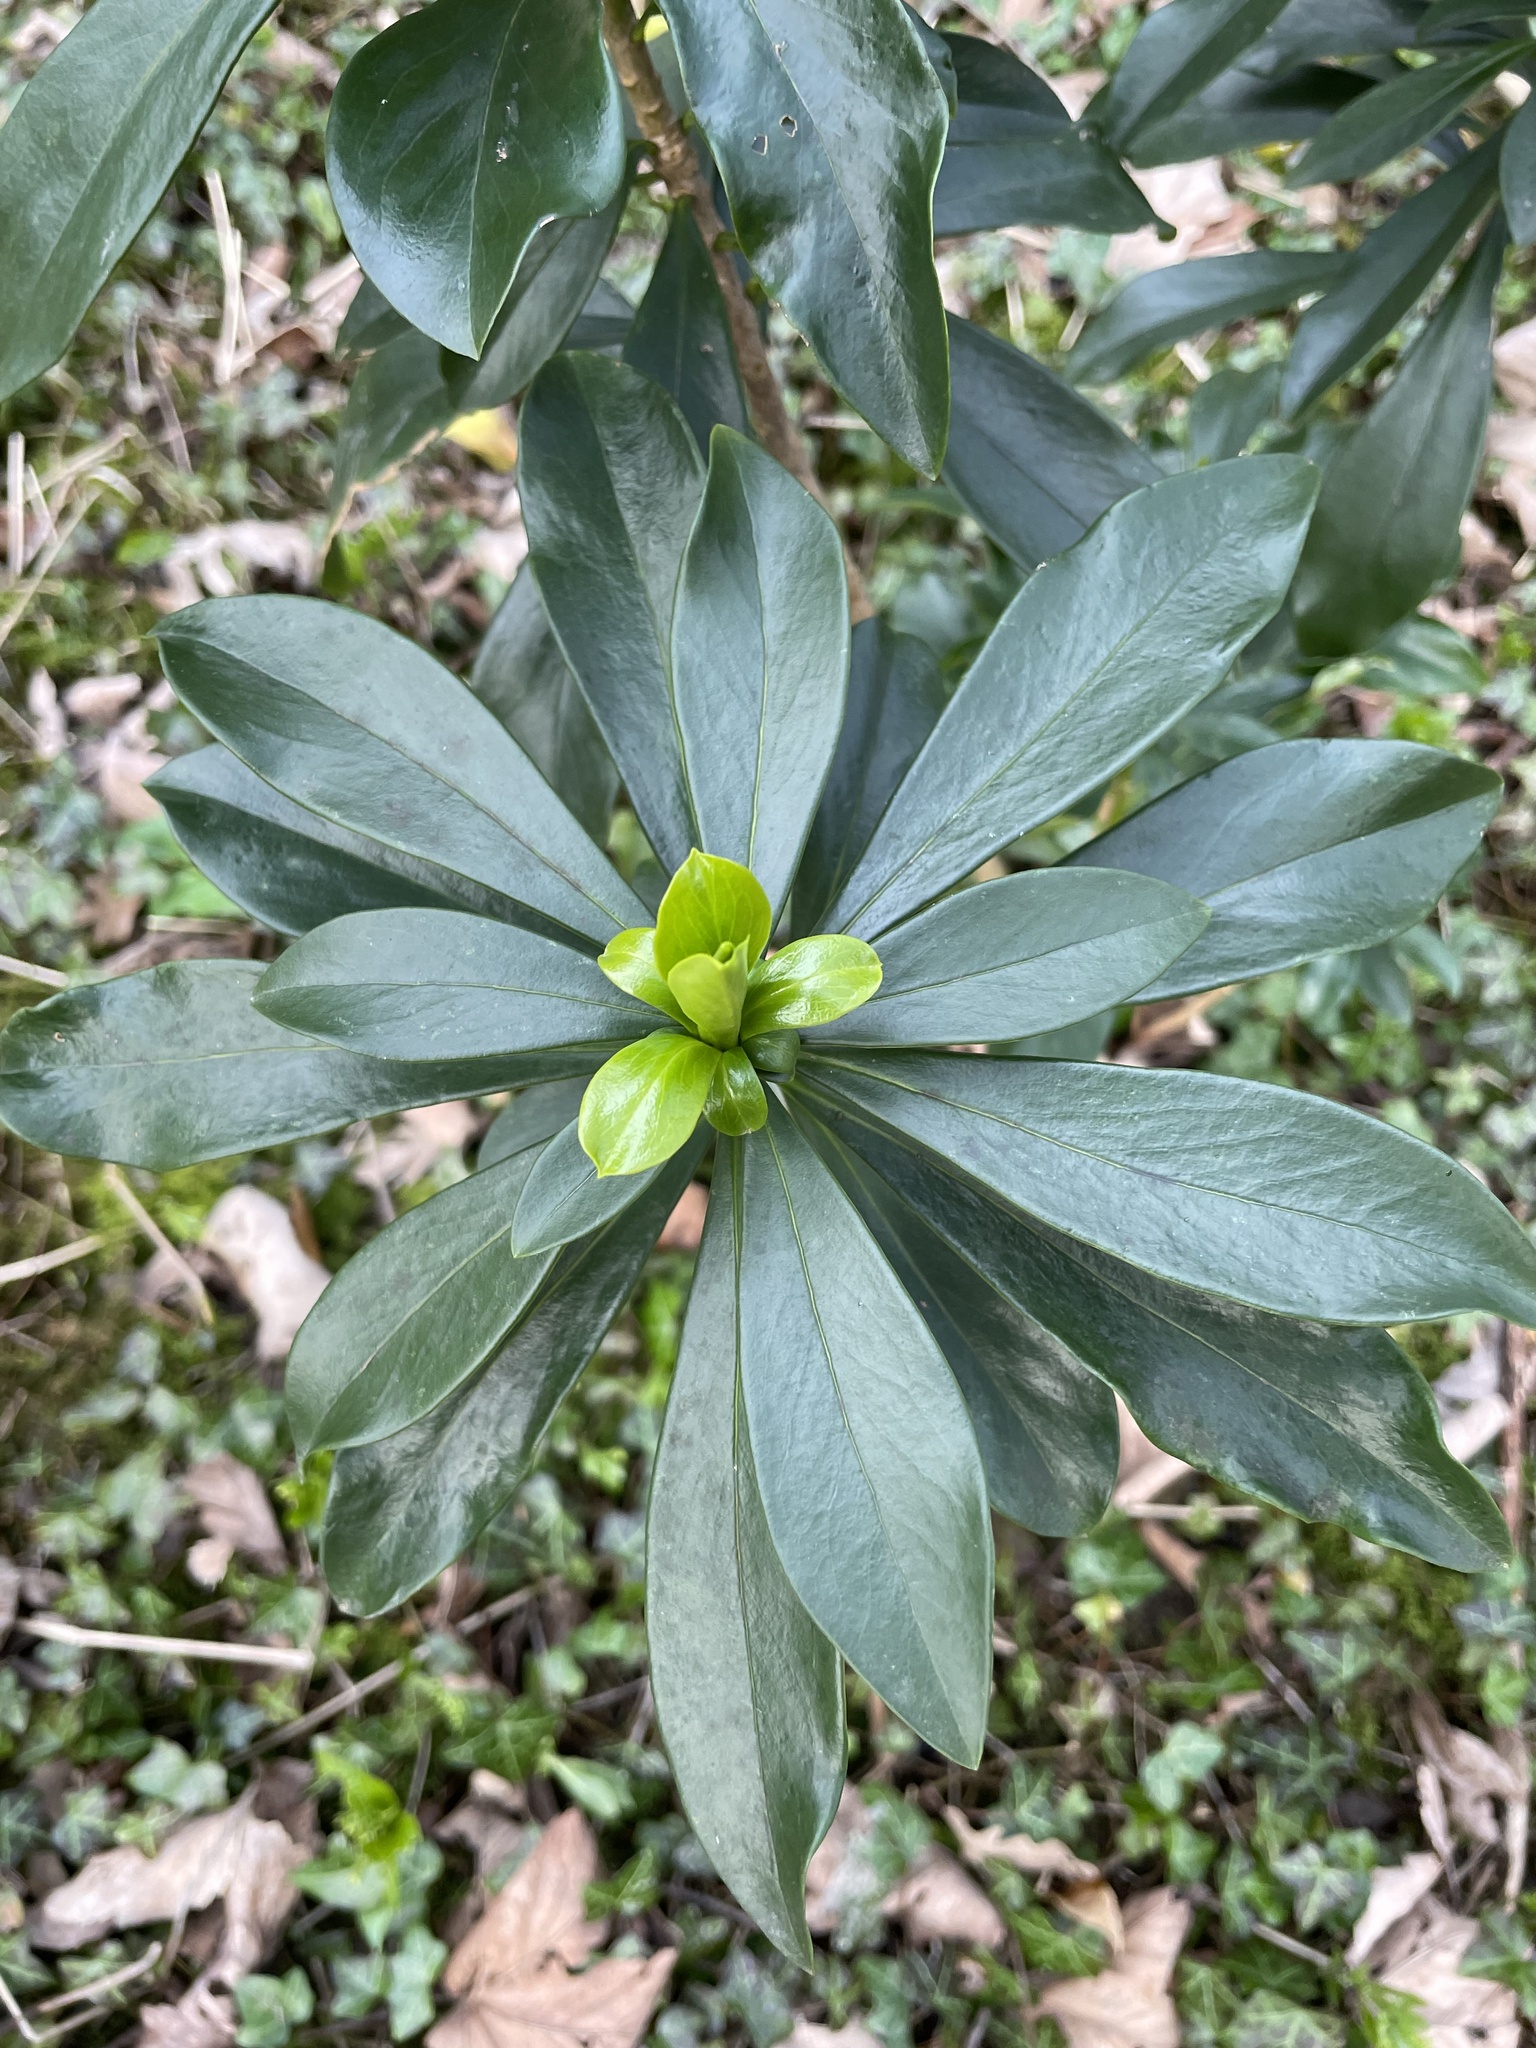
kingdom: Plantae
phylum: Tracheophyta
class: Magnoliopsida
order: Malvales
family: Thymelaeaceae
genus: Daphne
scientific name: Daphne laureola
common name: Spurge-laurel
